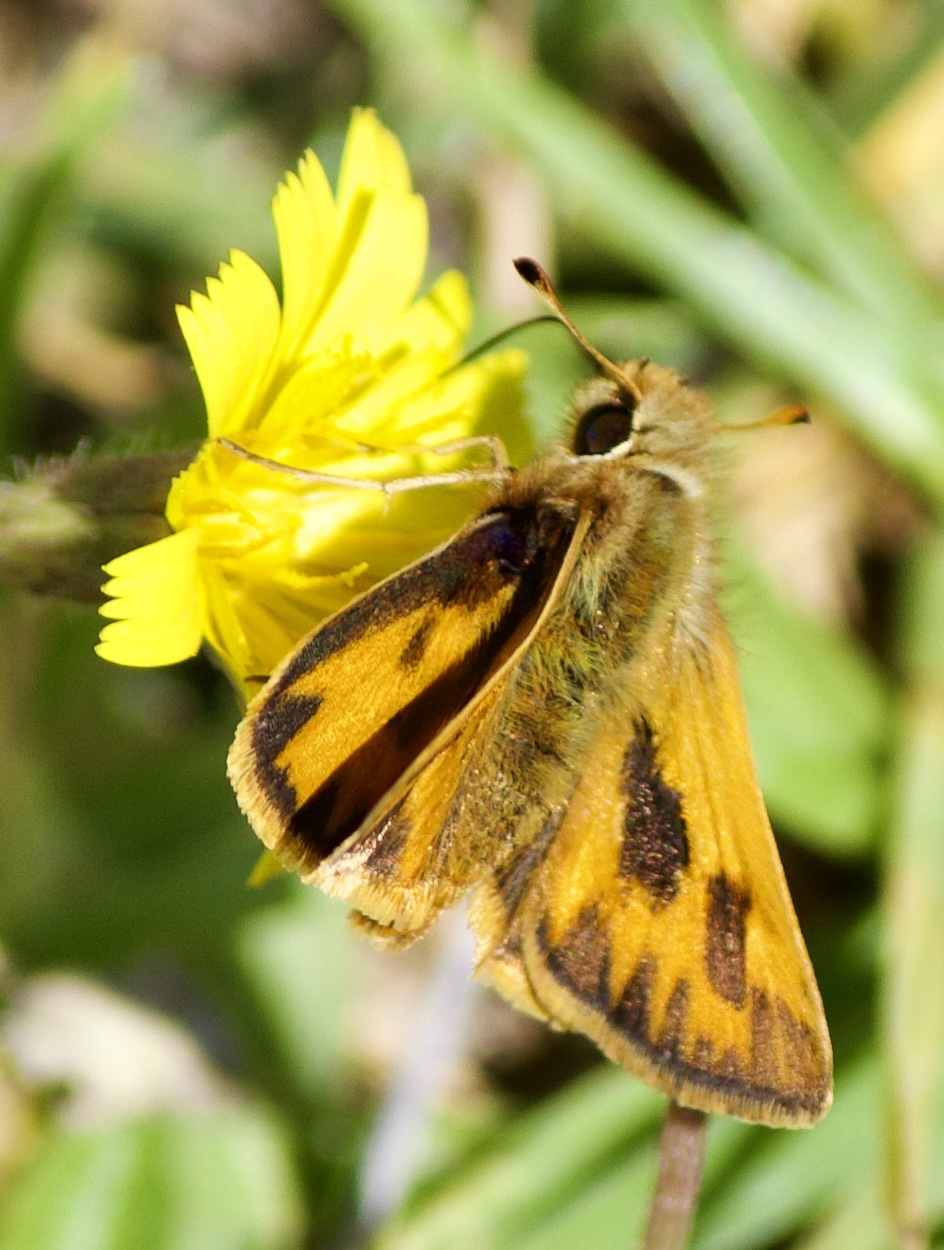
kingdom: Animalia
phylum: Arthropoda
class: Insecta
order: Lepidoptera
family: Hesperiidae
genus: Hylephila
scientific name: Hylephila fasciolata
